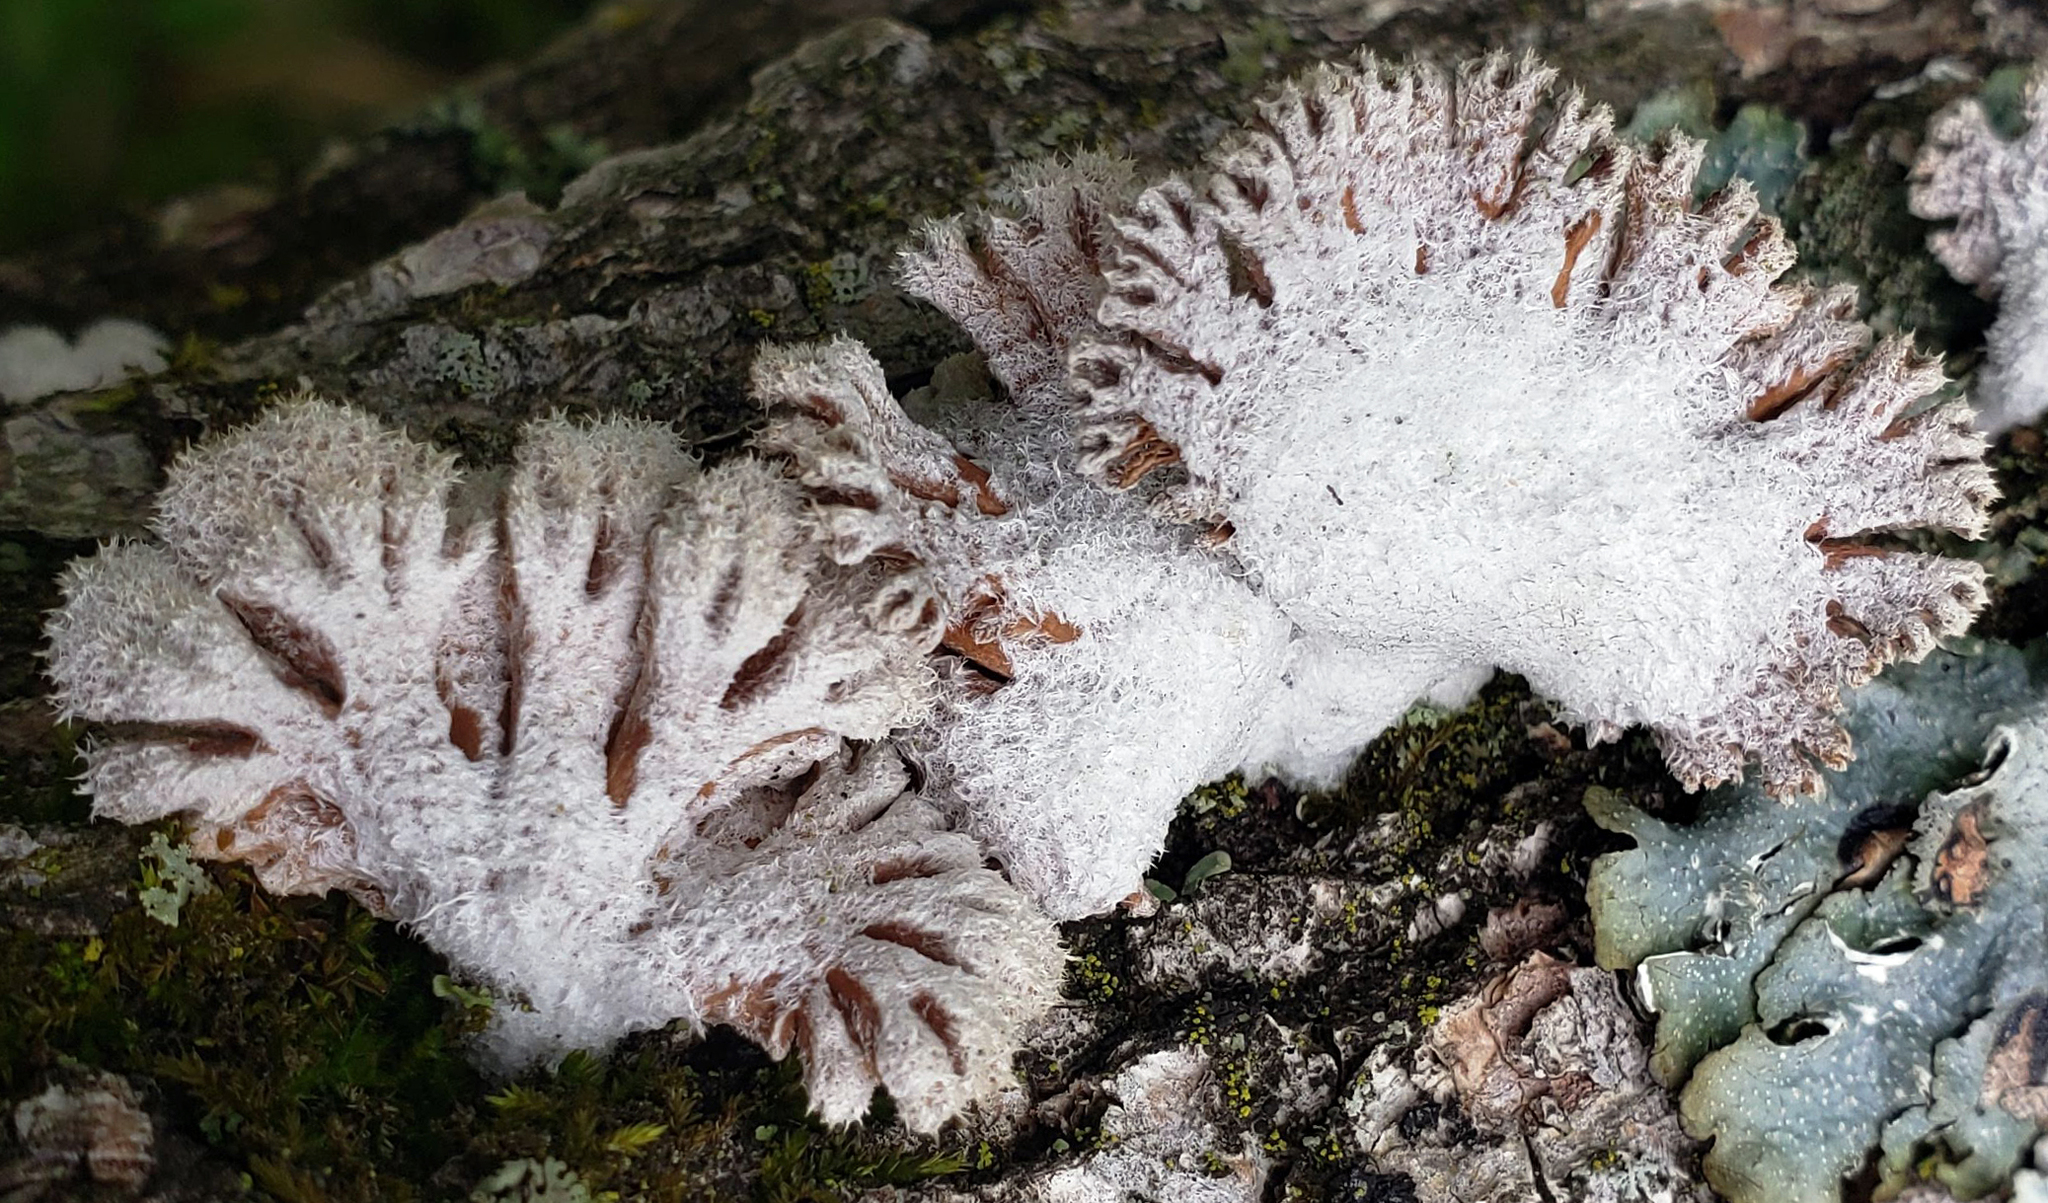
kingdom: Fungi
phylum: Basidiomycota
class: Agaricomycetes
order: Agaricales
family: Schizophyllaceae
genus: Schizophyllum
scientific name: Schizophyllum commune
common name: Common porecrust
